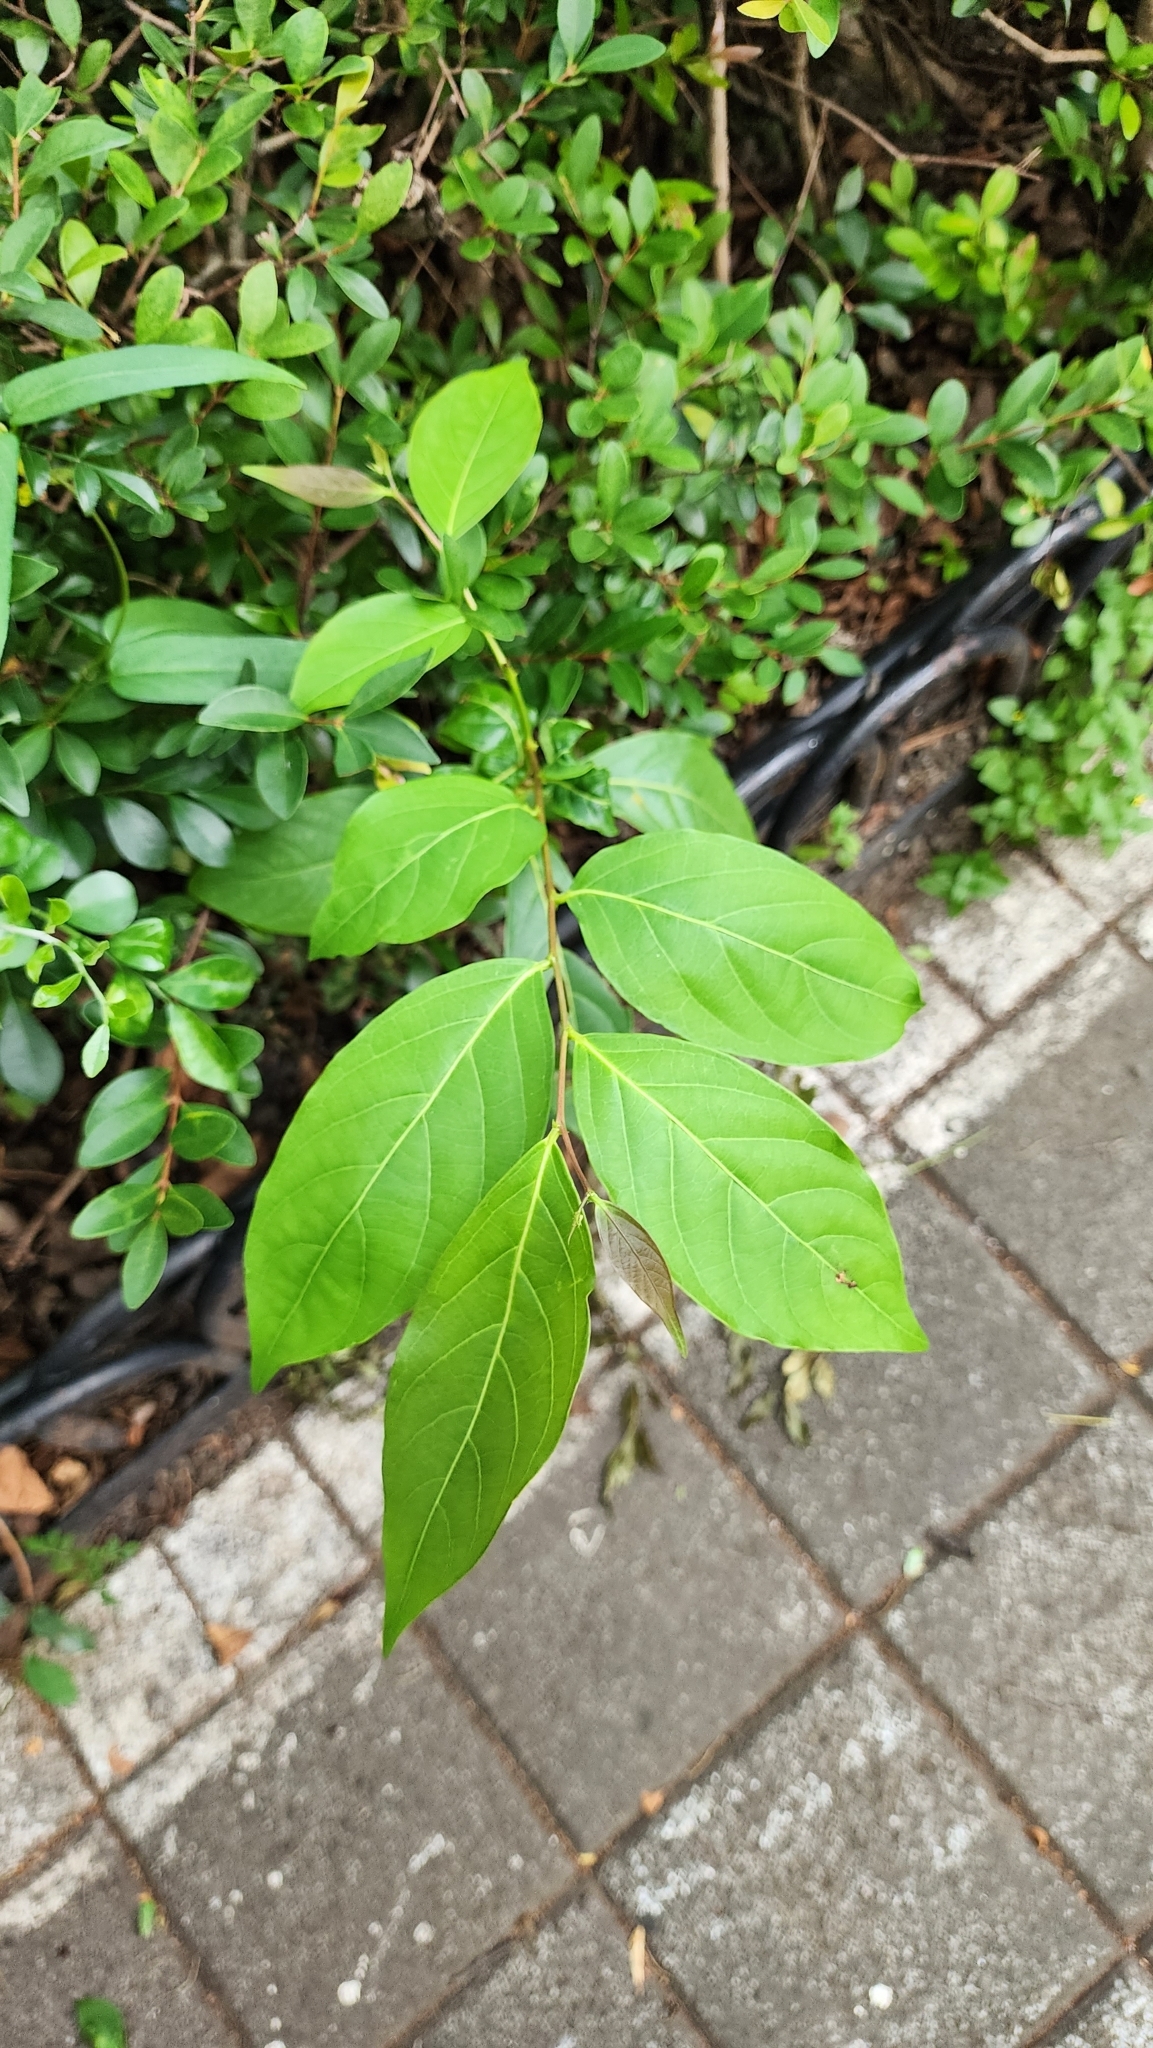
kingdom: Plantae
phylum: Tracheophyta
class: Magnoliopsida
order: Malpighiales
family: Phyllanthaceae
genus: Glochidion
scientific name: Glochidion zeylanicum
